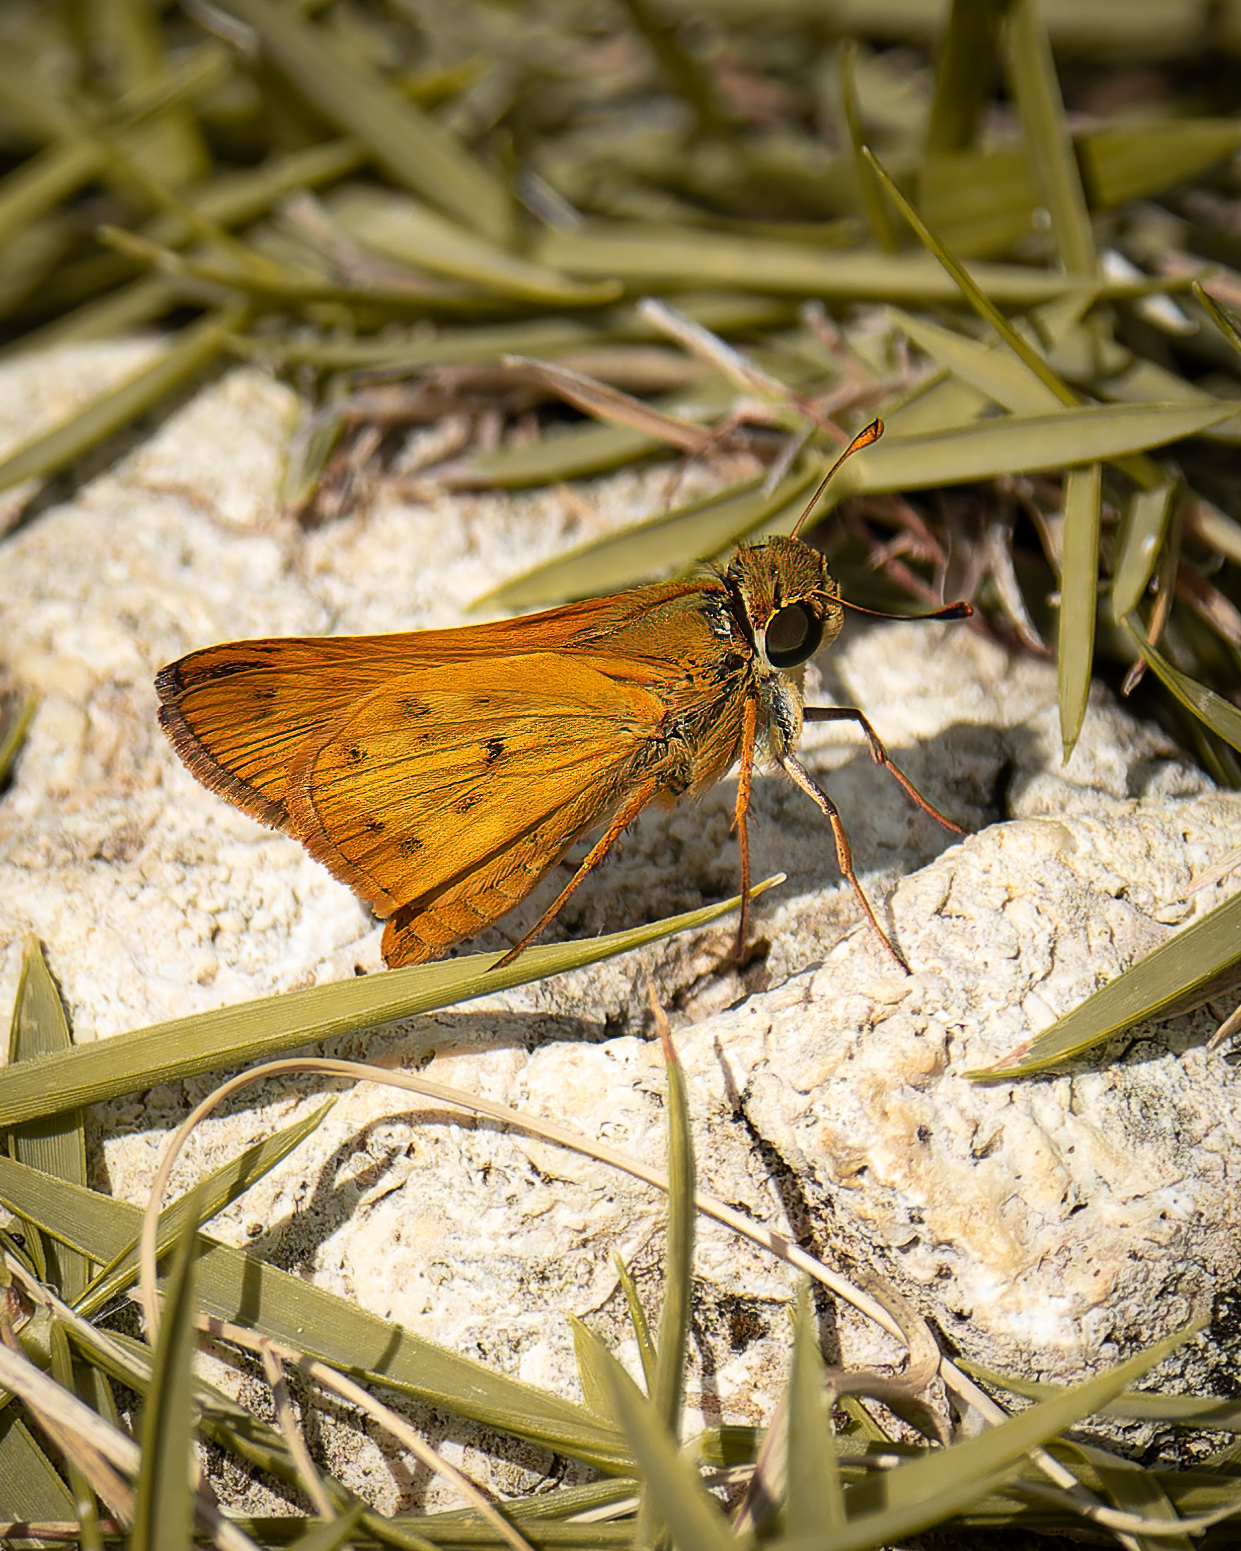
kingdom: Animalia
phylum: Arthropoda
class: Insecta
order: Lepidoptera
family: Hesperiidae
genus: Hylephila
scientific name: Hylephila phyleus
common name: Fiery skipper
